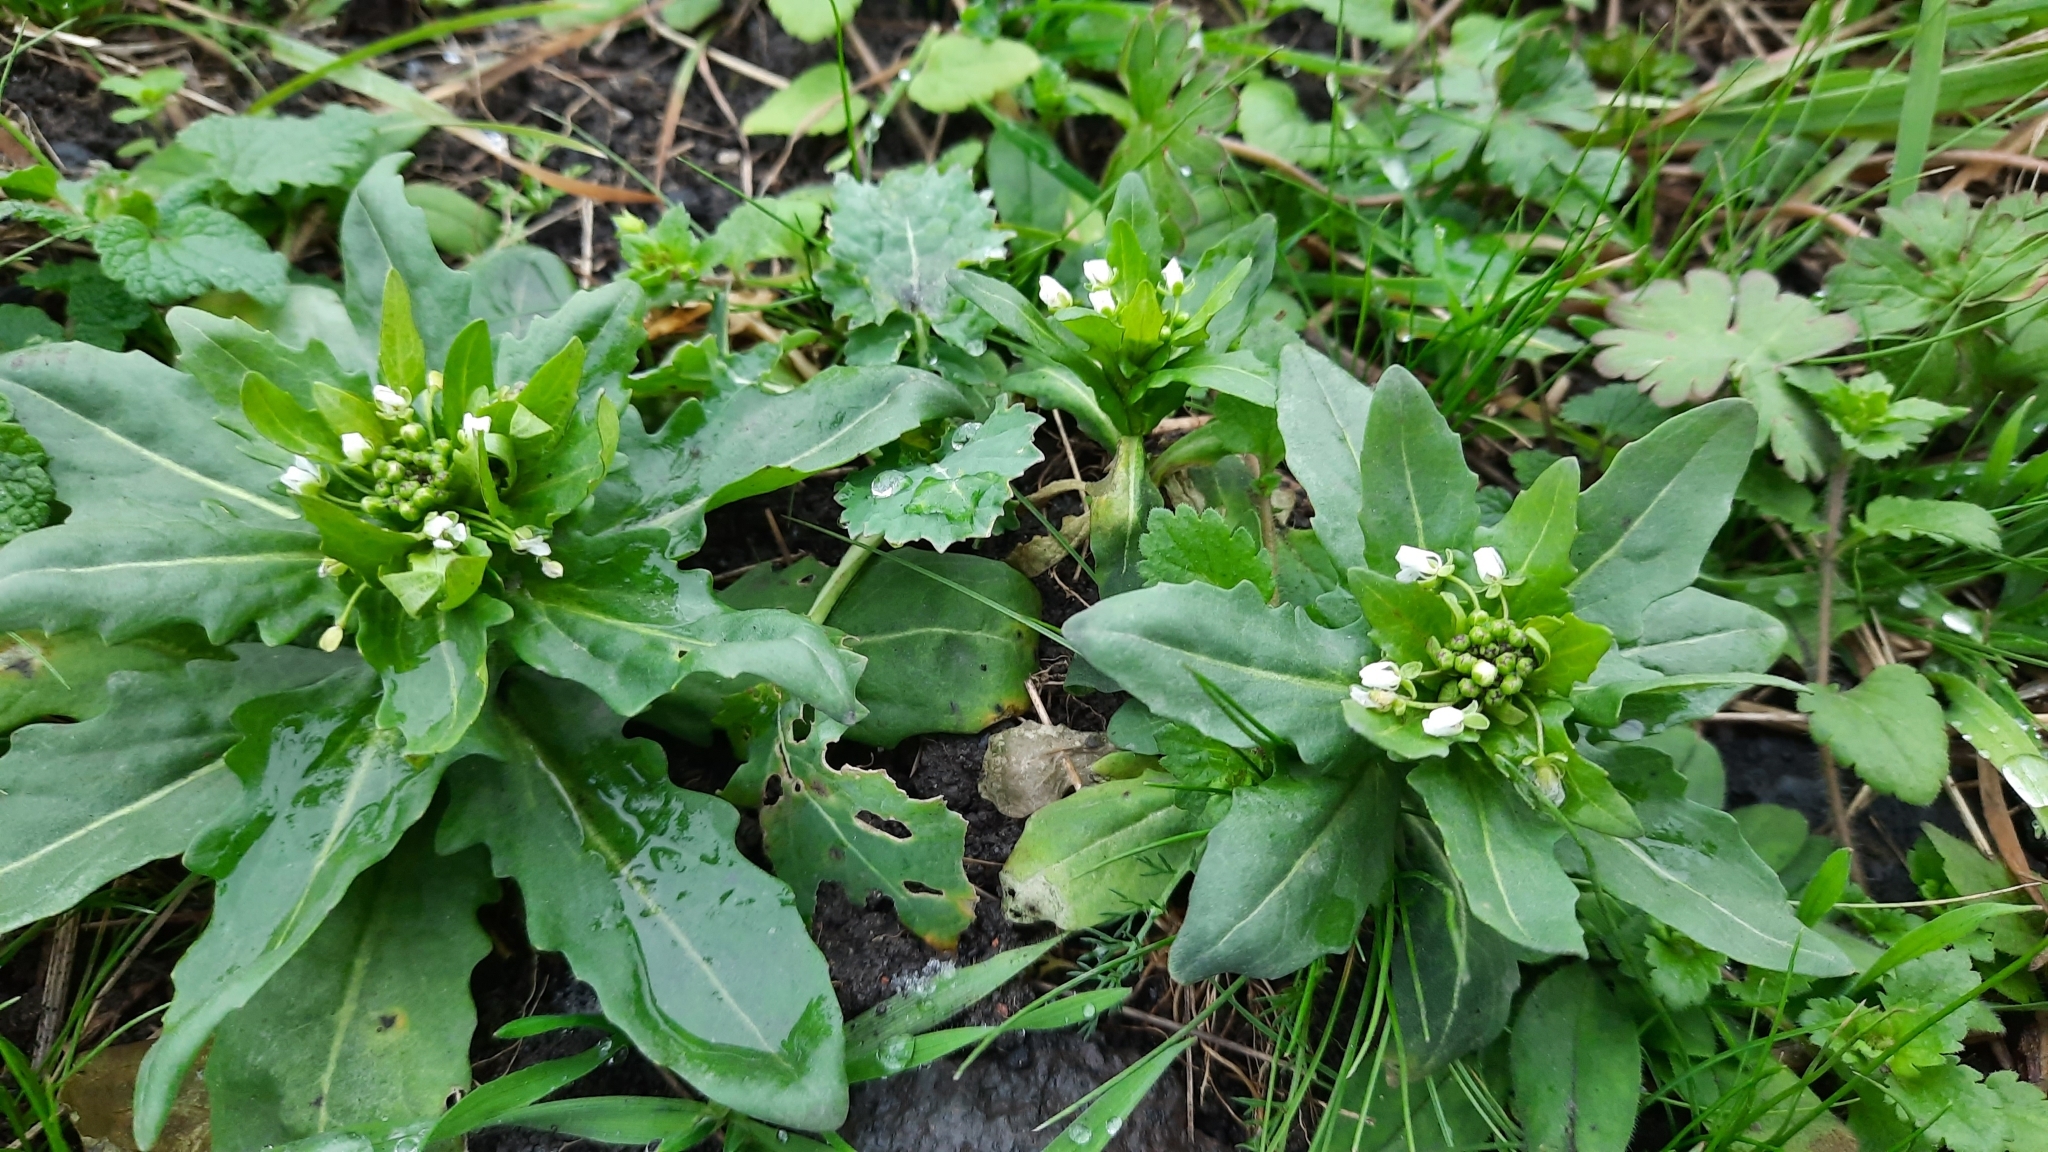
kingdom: Plantae
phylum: Tracheophyta
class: Magnoliopsida
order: Brassicales
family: Brassicaceae
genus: Thlaspi
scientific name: Thlaspi arvense
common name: Field pennycress
